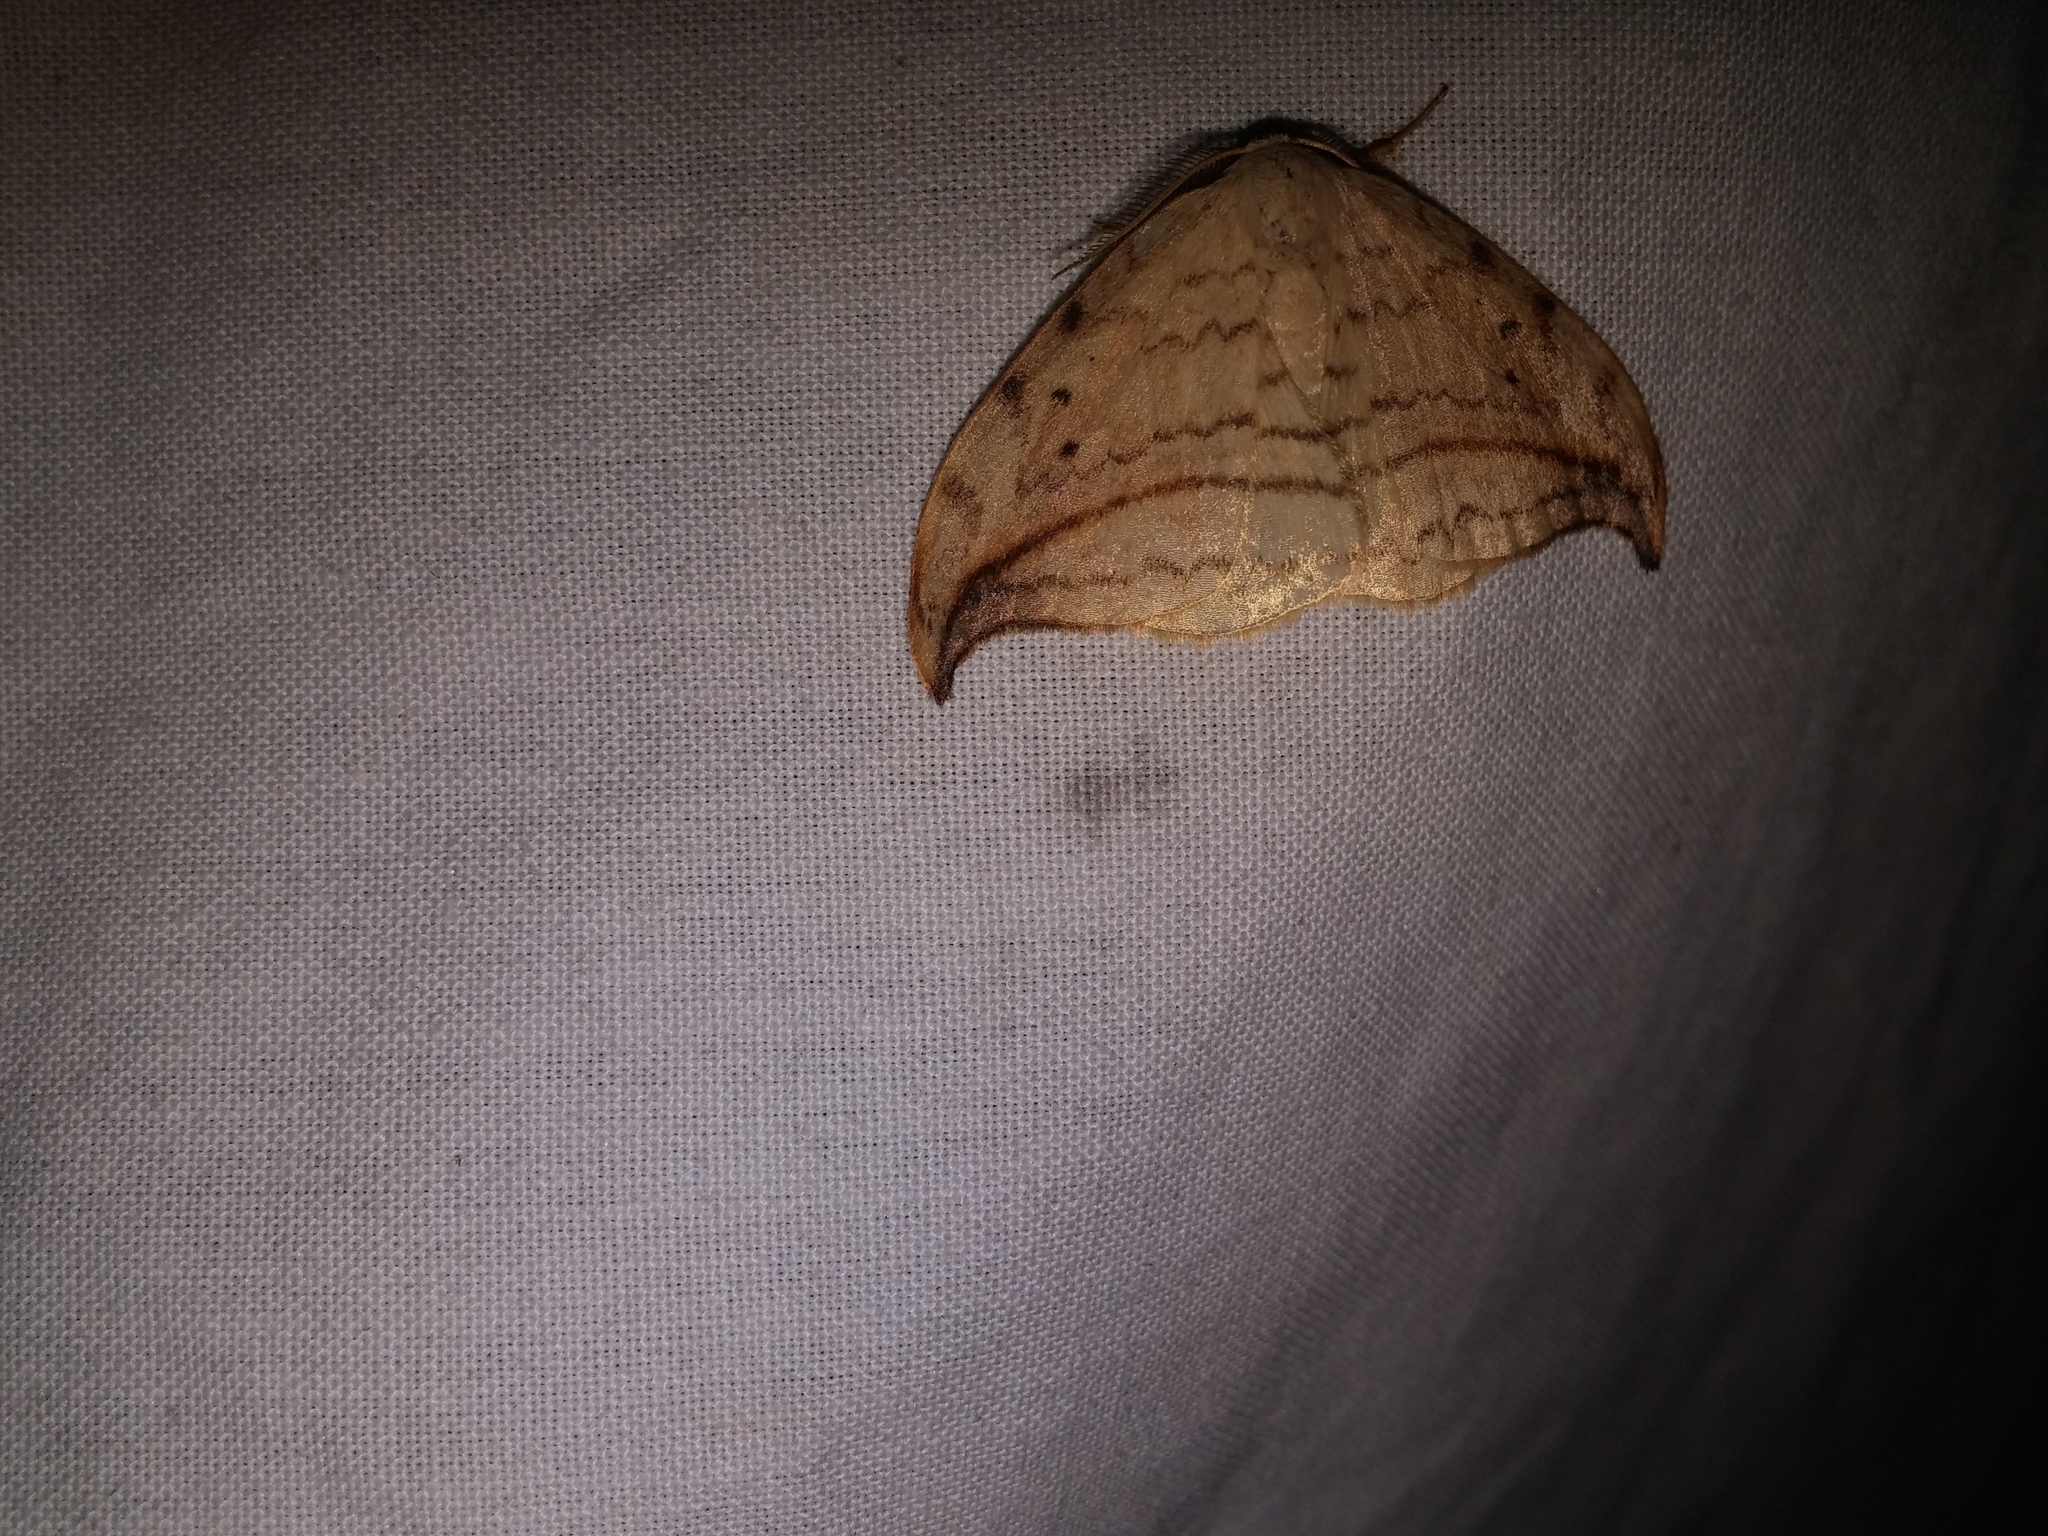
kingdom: Animalia
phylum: Arthropoda
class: Insecta
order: Lepidoptera
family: Drepanidae
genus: Drepana
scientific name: Drepana arcuata
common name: Arched hooktip moth
